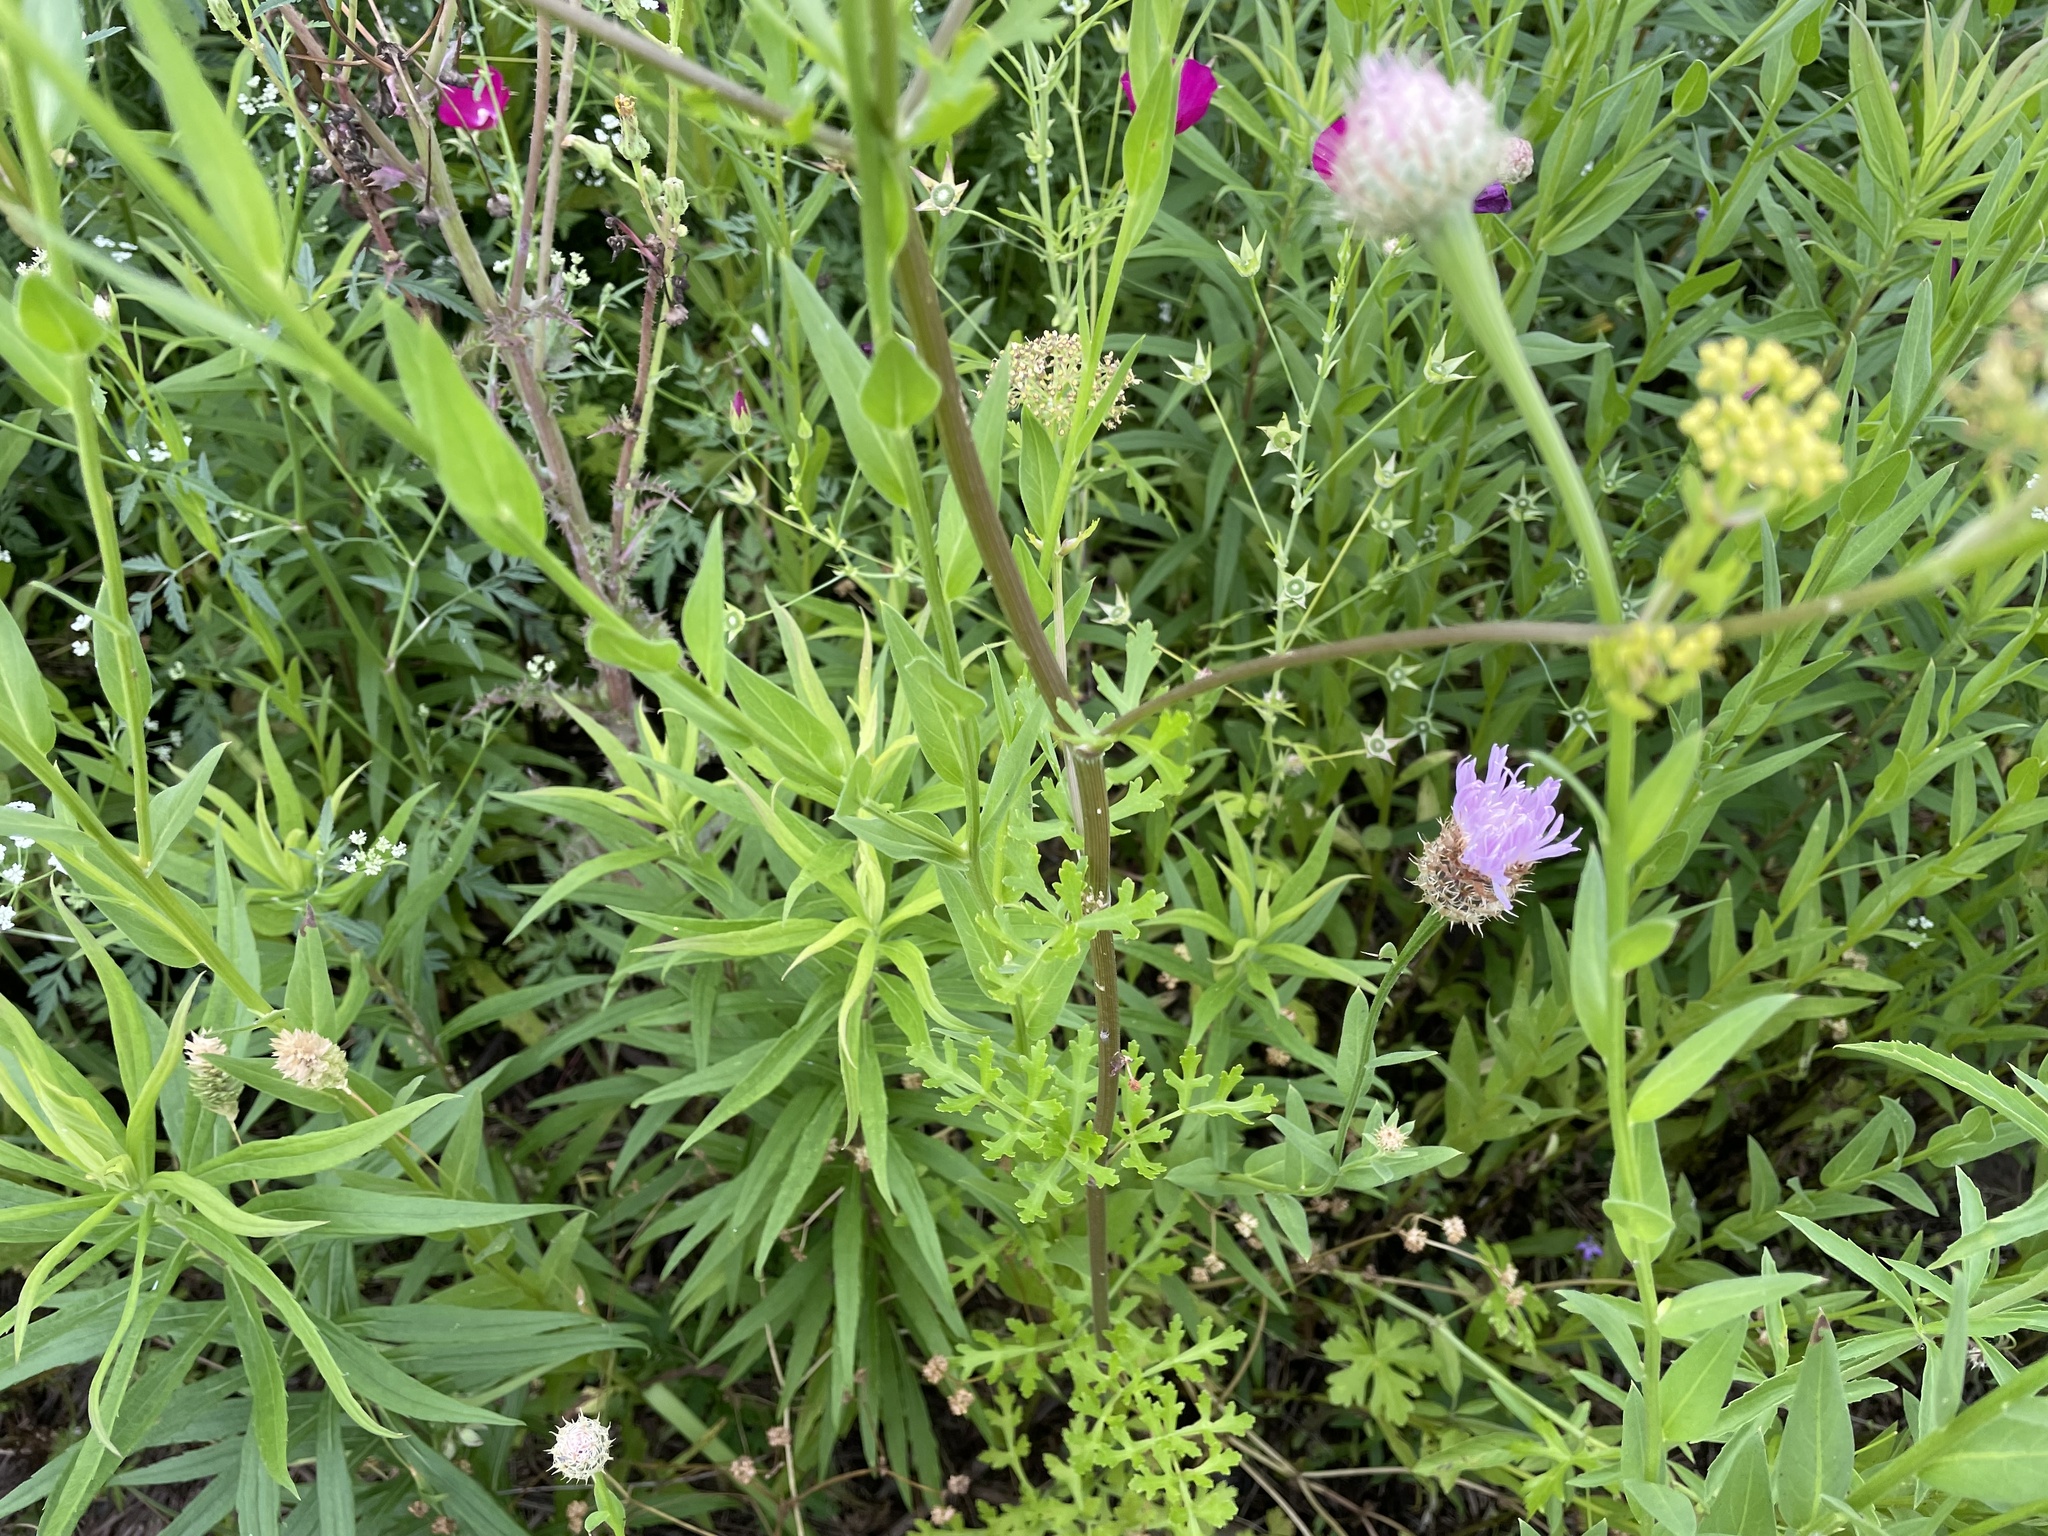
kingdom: Plantae
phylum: Tracheophyta
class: Magnoliopsida
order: Apiales
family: Apiaceae
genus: Polytaenia
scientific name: Polytaenia texana
